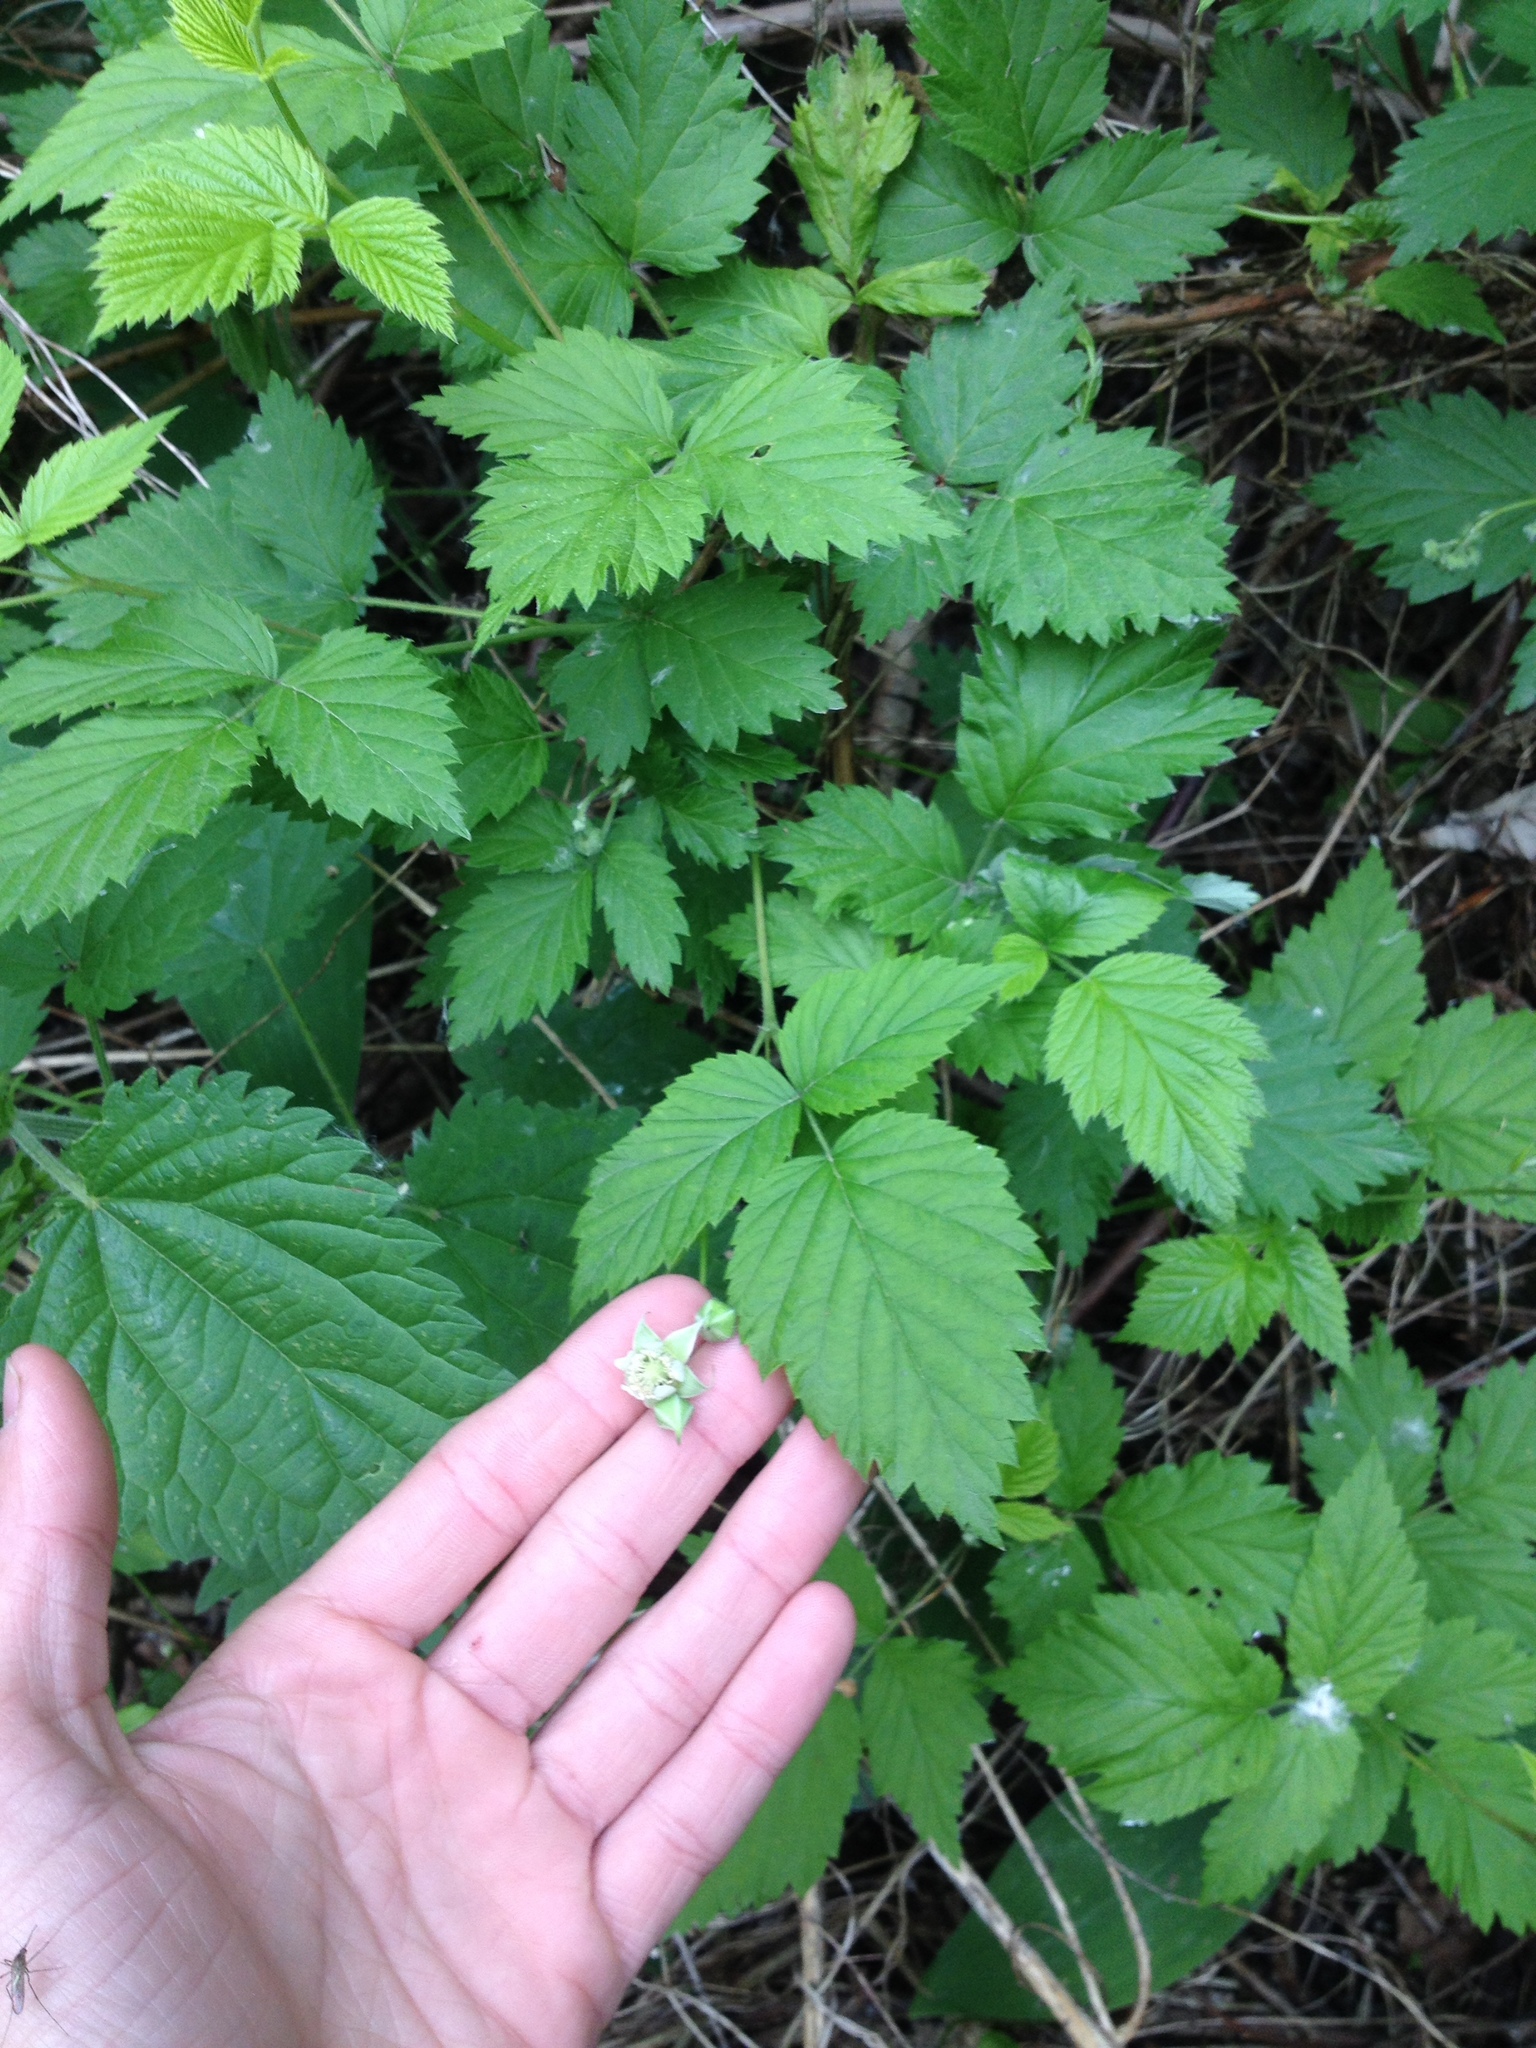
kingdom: Plantae
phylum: Tracheophyta
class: Magnoliopsida
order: Rosales
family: Rosaceae
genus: Rubus
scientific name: Rubus idaeus
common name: Raspberry
